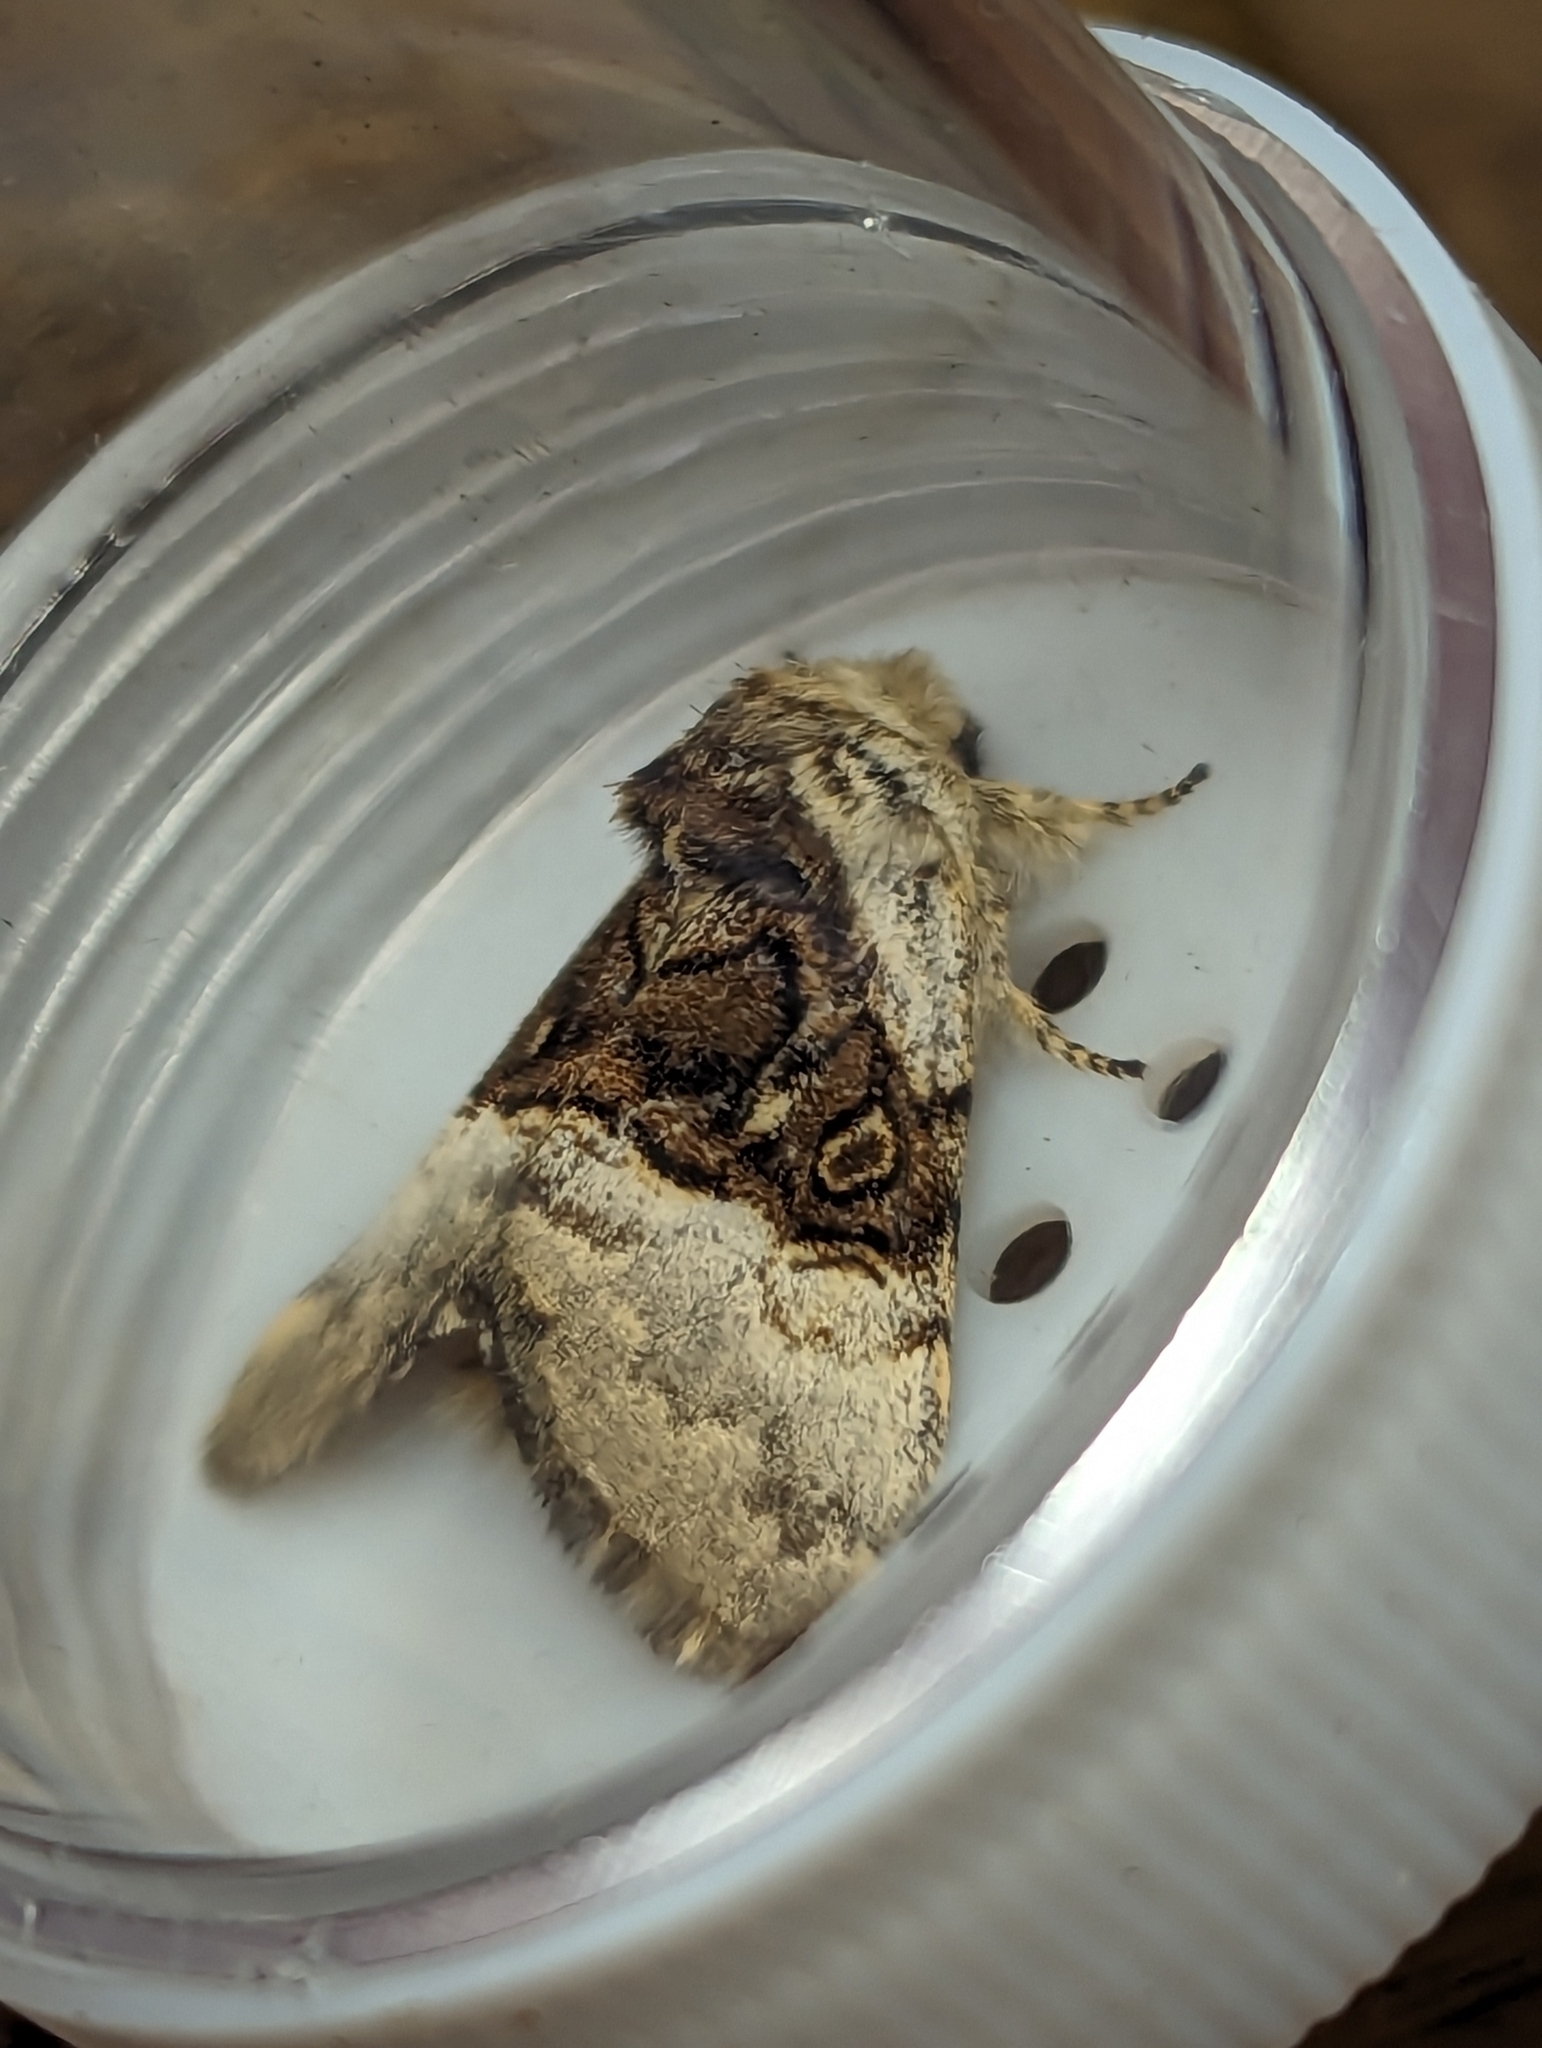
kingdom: Animalia
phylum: Arthropoda
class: Insecta
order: Lepidoptera
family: Noctuidae
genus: Colocasia
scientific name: Colocasia coryli
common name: Nut-tree tussock
